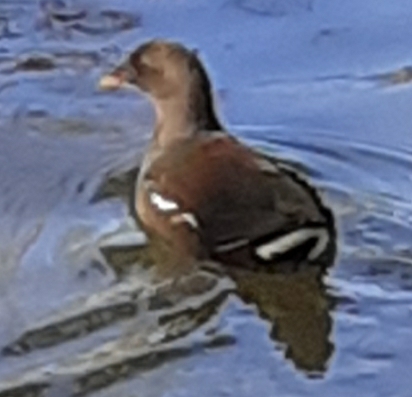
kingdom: Animalia
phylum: Chordata
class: Aves
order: Gruiformes
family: Rallidae
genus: Gallinula
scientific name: Gallinula chloropus
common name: Common moorhen
